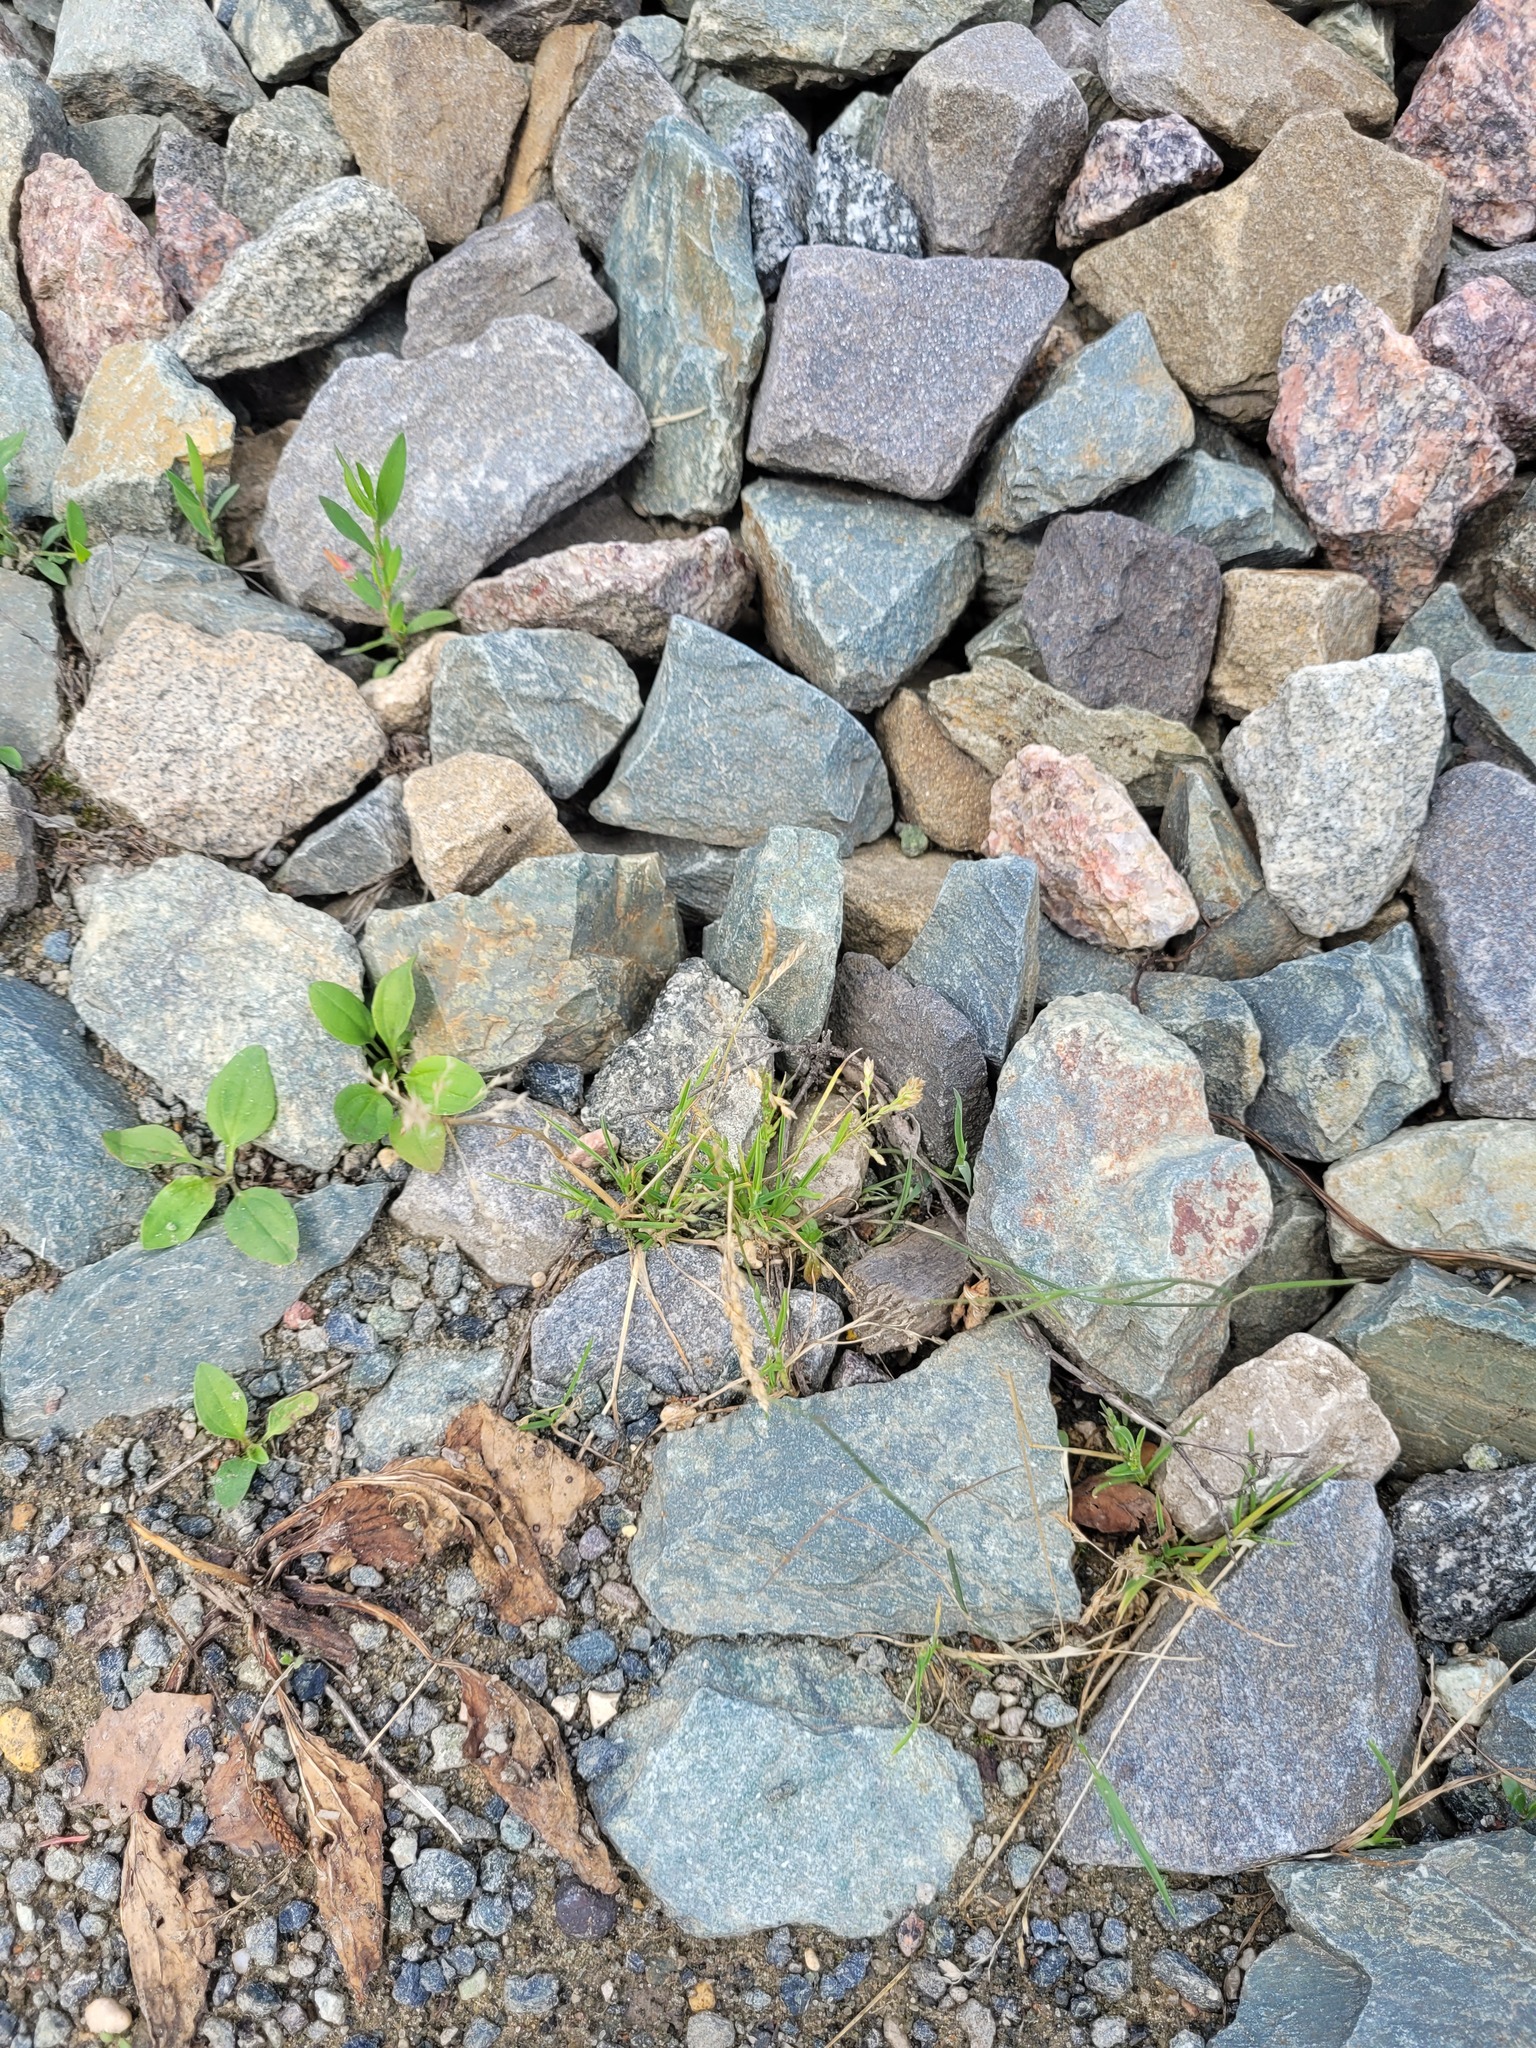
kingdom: Plantae
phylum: Tracheophyta
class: Liliopsida
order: Poales
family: Poaceae
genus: Poa
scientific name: Poa annua
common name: Annual bluegrass
